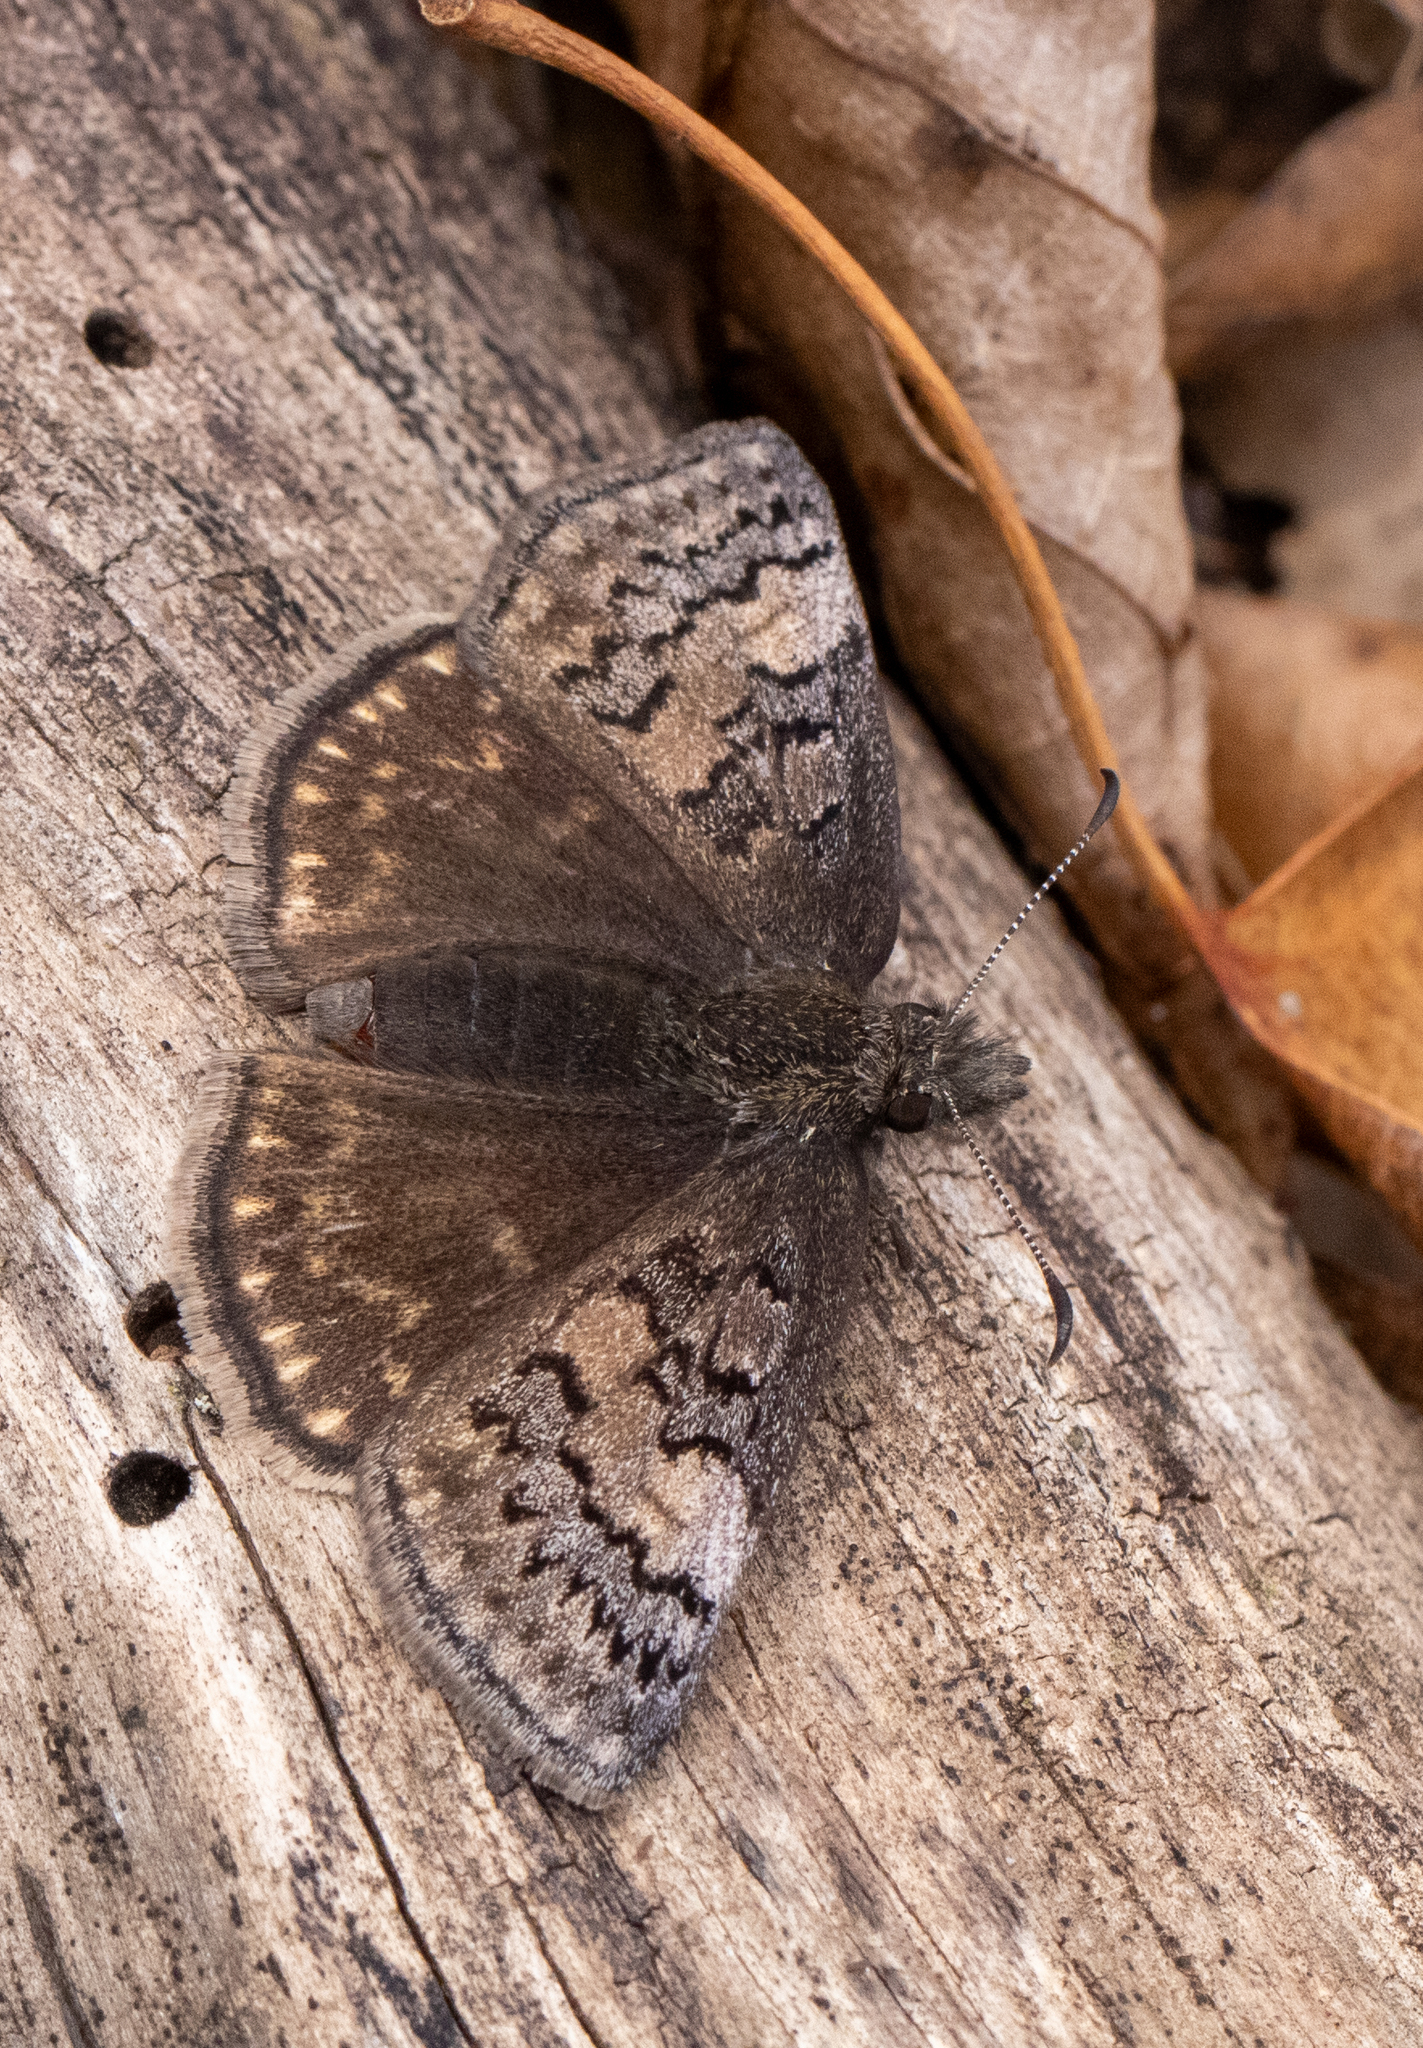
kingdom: Animalia
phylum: Arthropoda
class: Insecta
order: Lepidoptera
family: Hesperiidae
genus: Erynnis
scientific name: Erynnis brizo
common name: Sleepy duskywing
